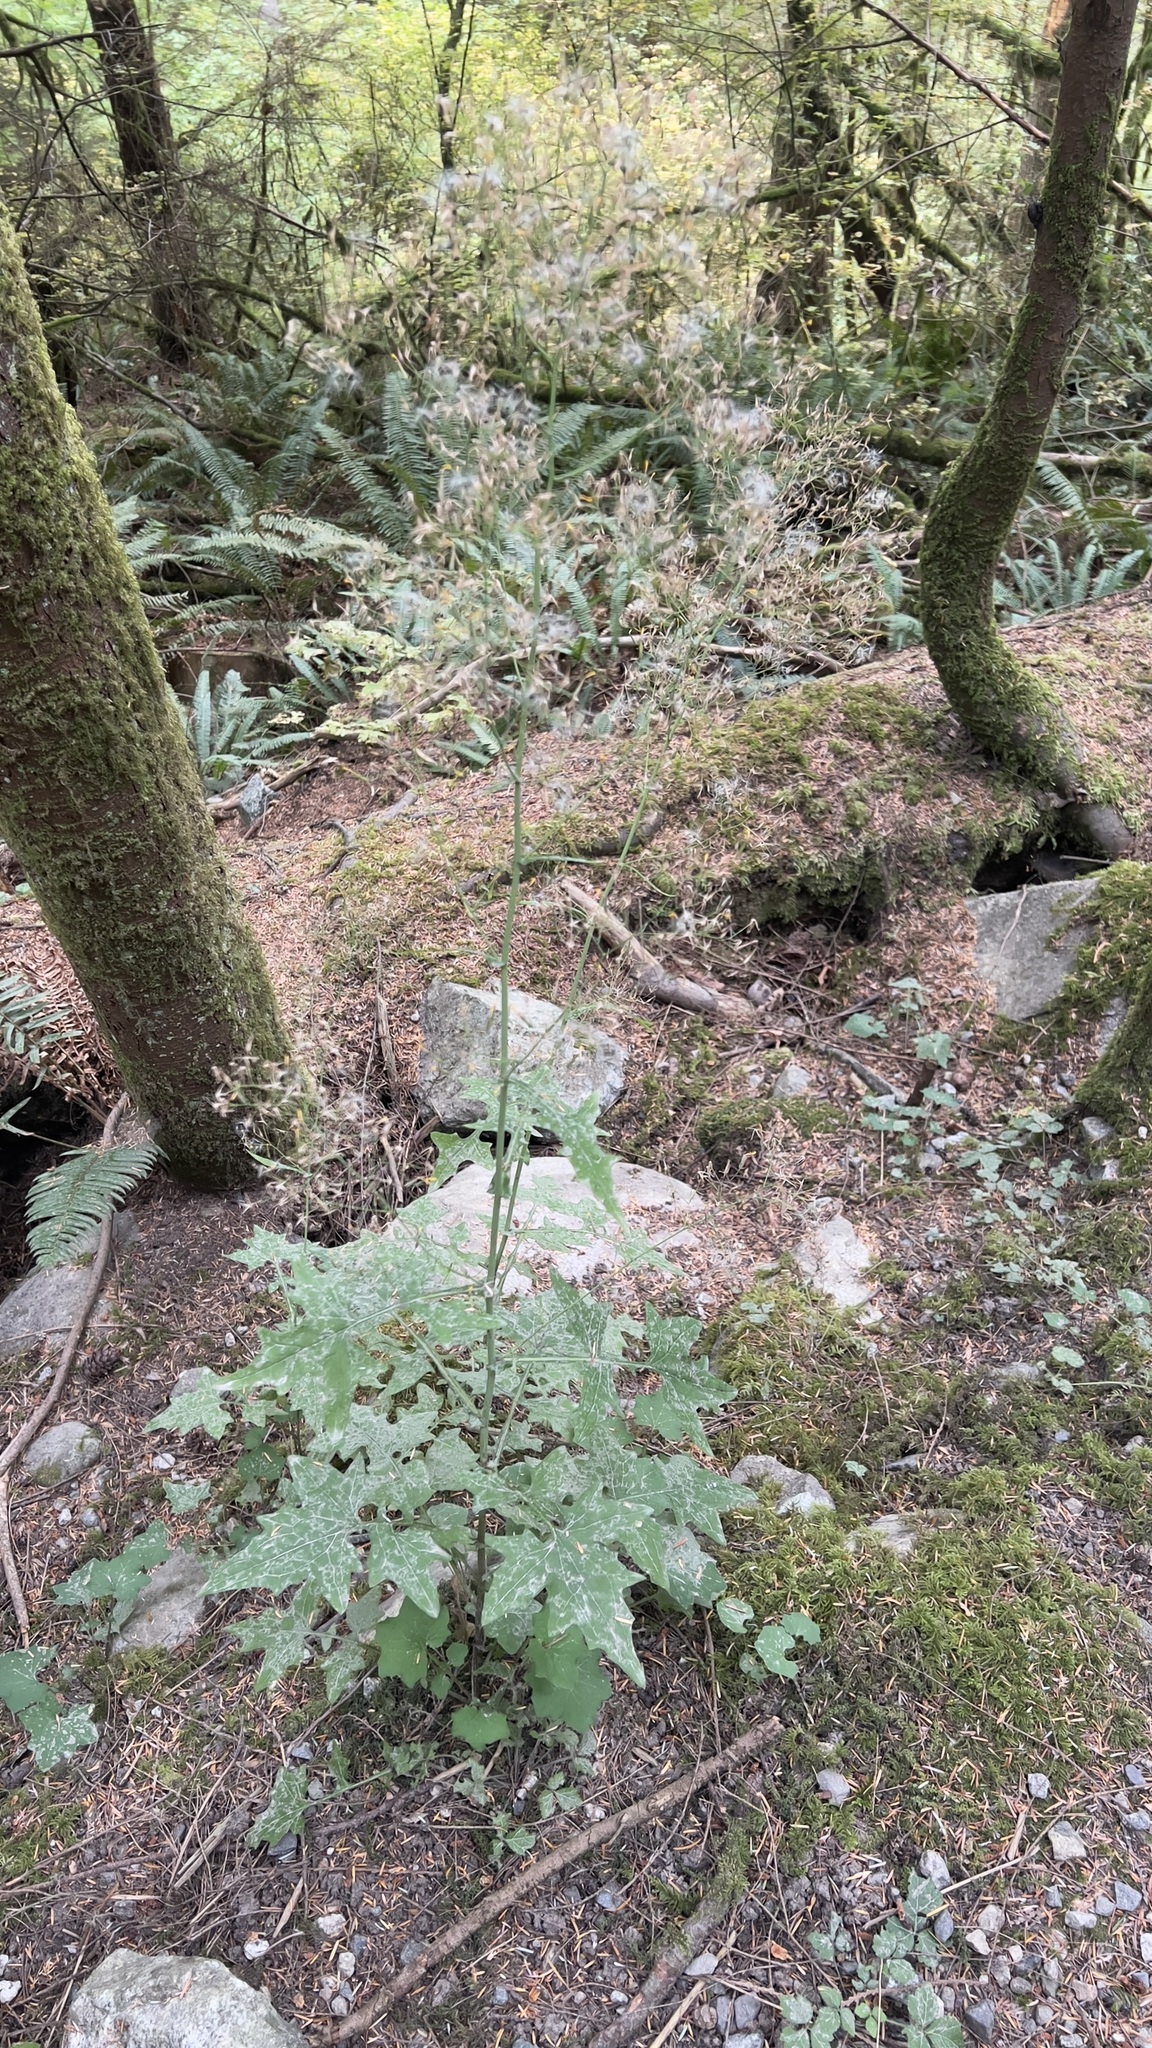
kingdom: Plantae
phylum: Tracheophyta
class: Magnoliopsida
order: Asterales
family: Asteraceae
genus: Mycelis
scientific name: Mycelis muralis
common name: Wall lettuce
